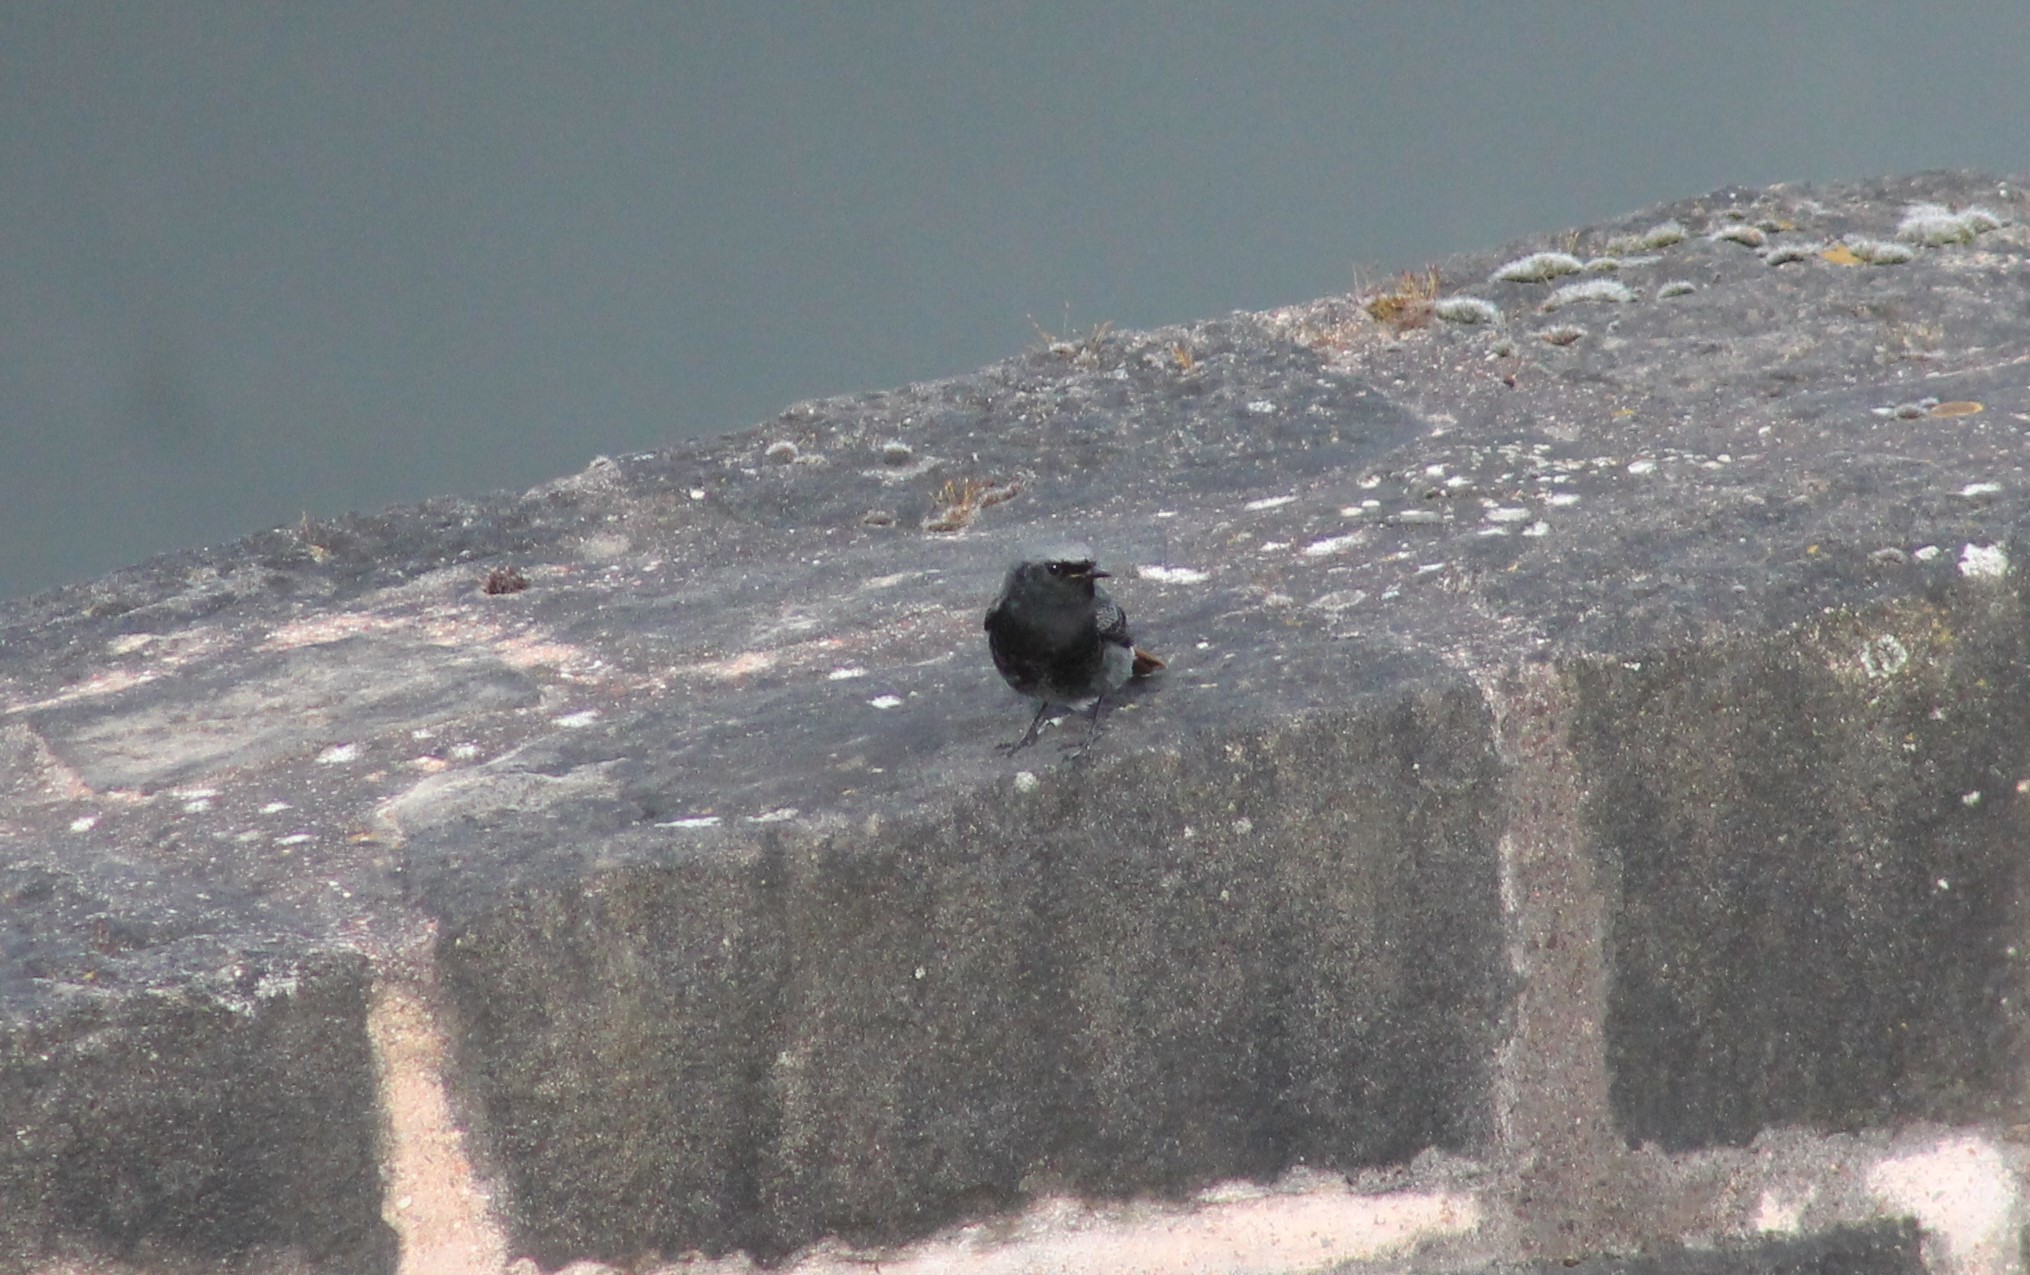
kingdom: Animalia
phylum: Chordata
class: Aves
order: Passeriformes
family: Muscicapidae
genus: Phoenicurus
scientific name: Phoenicurus ochruros
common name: Black redstart
